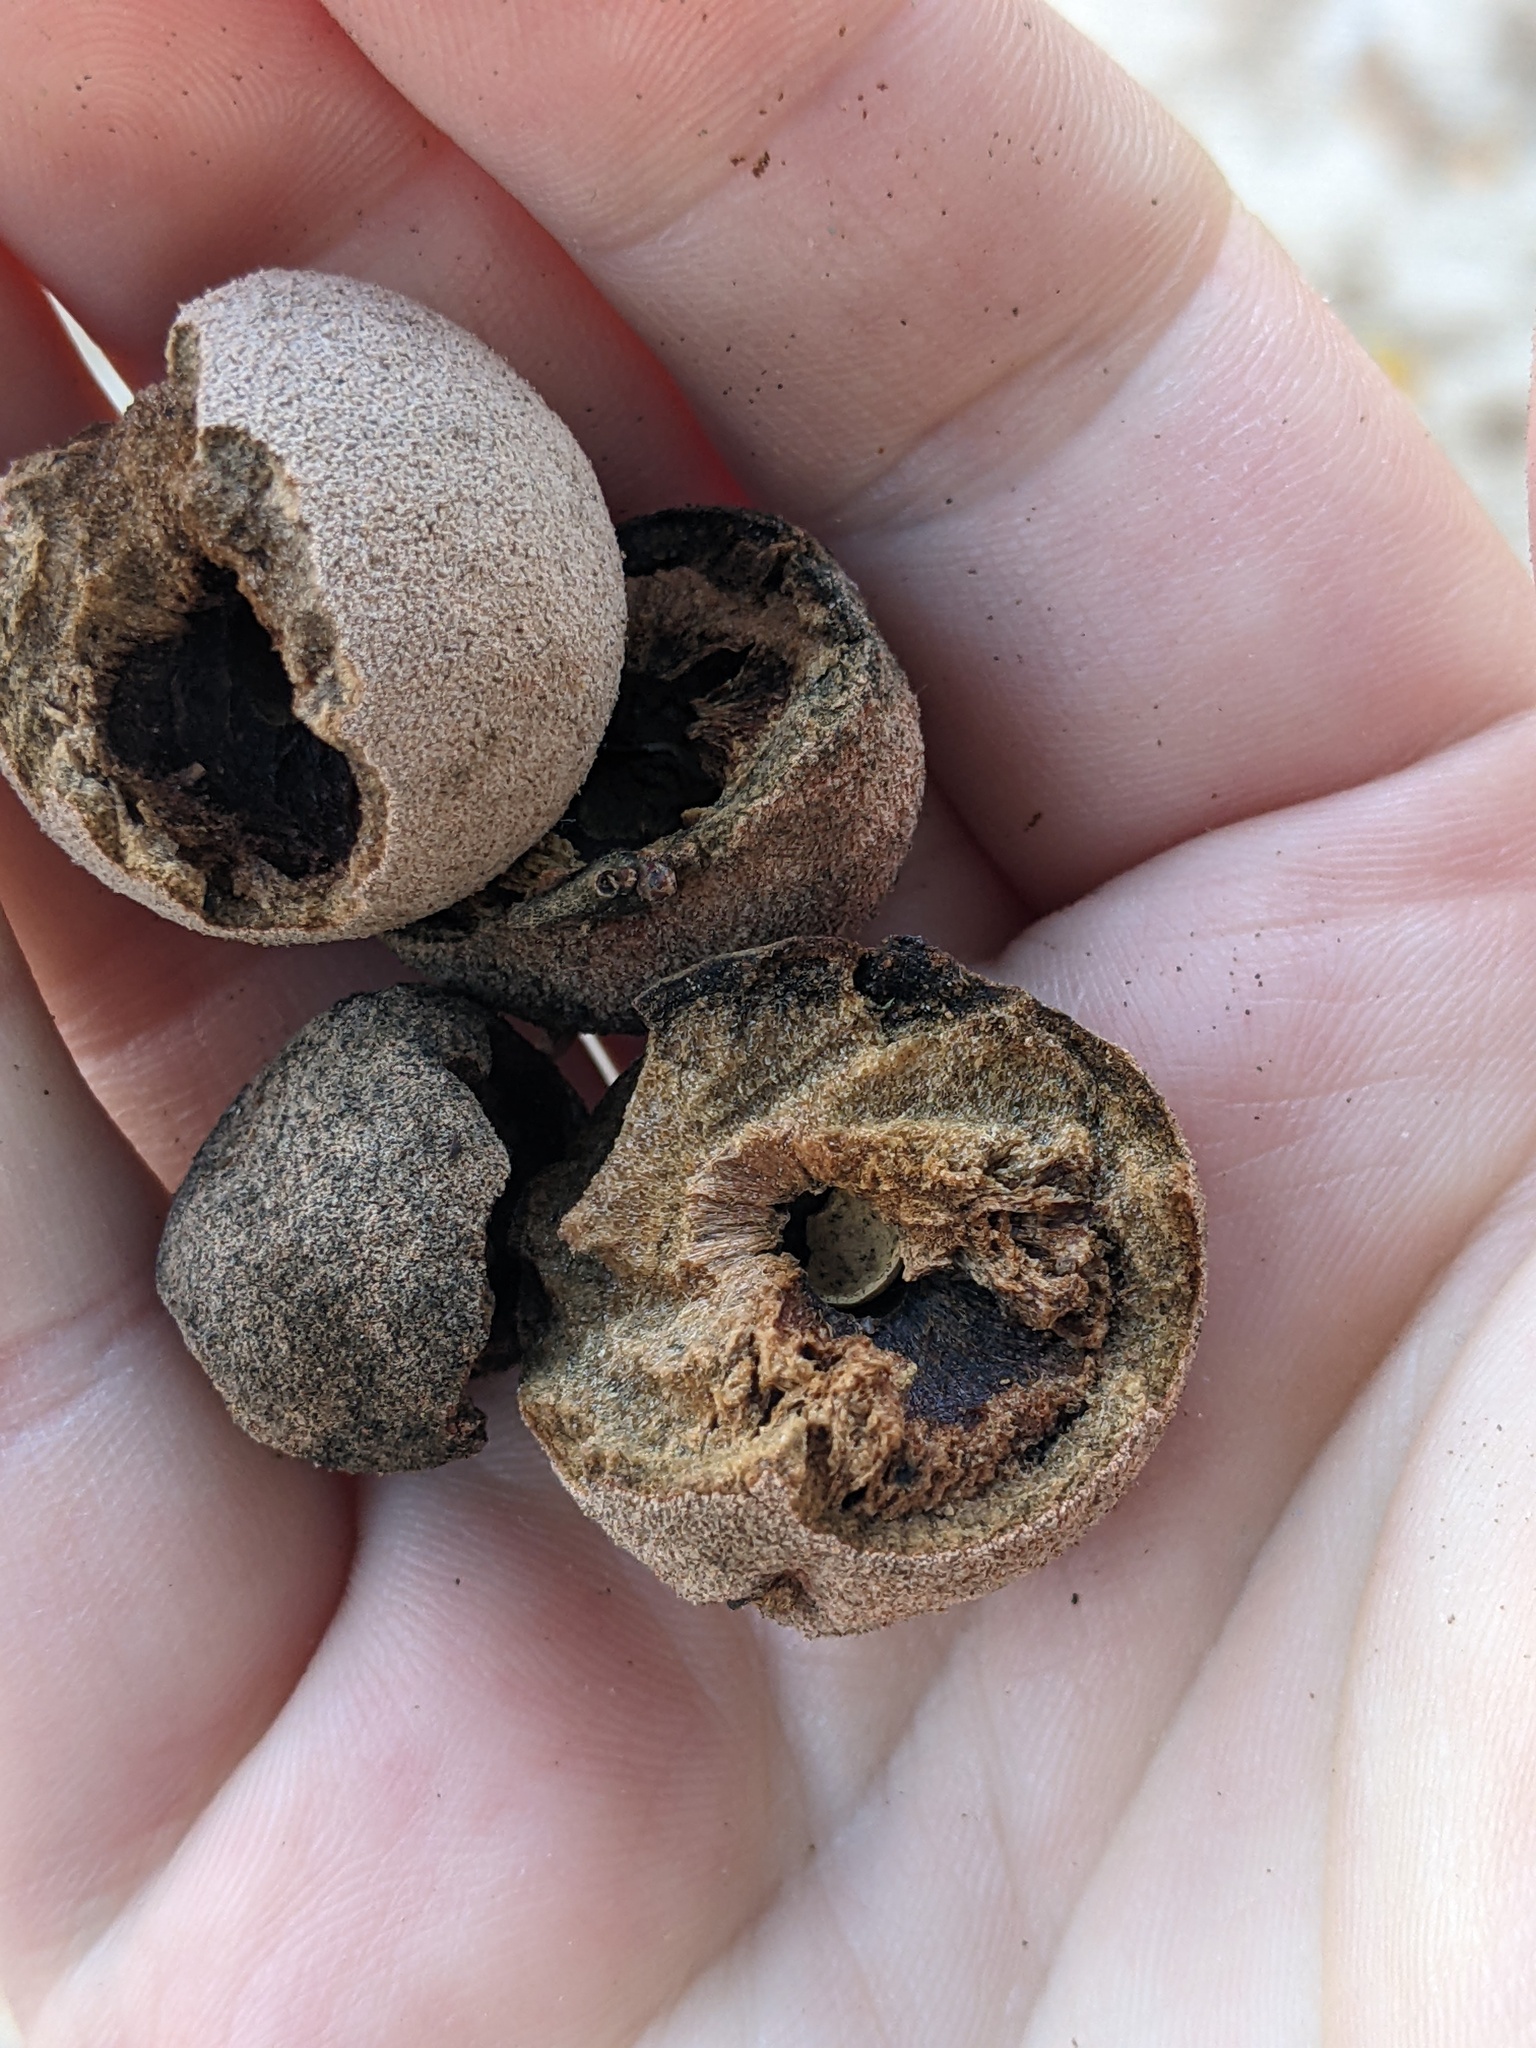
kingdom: Animalia
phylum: Arthropoda
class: Insecta
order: Hymenoptera
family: Cynipidae
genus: Disholcaspis
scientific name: Disholcaspis
